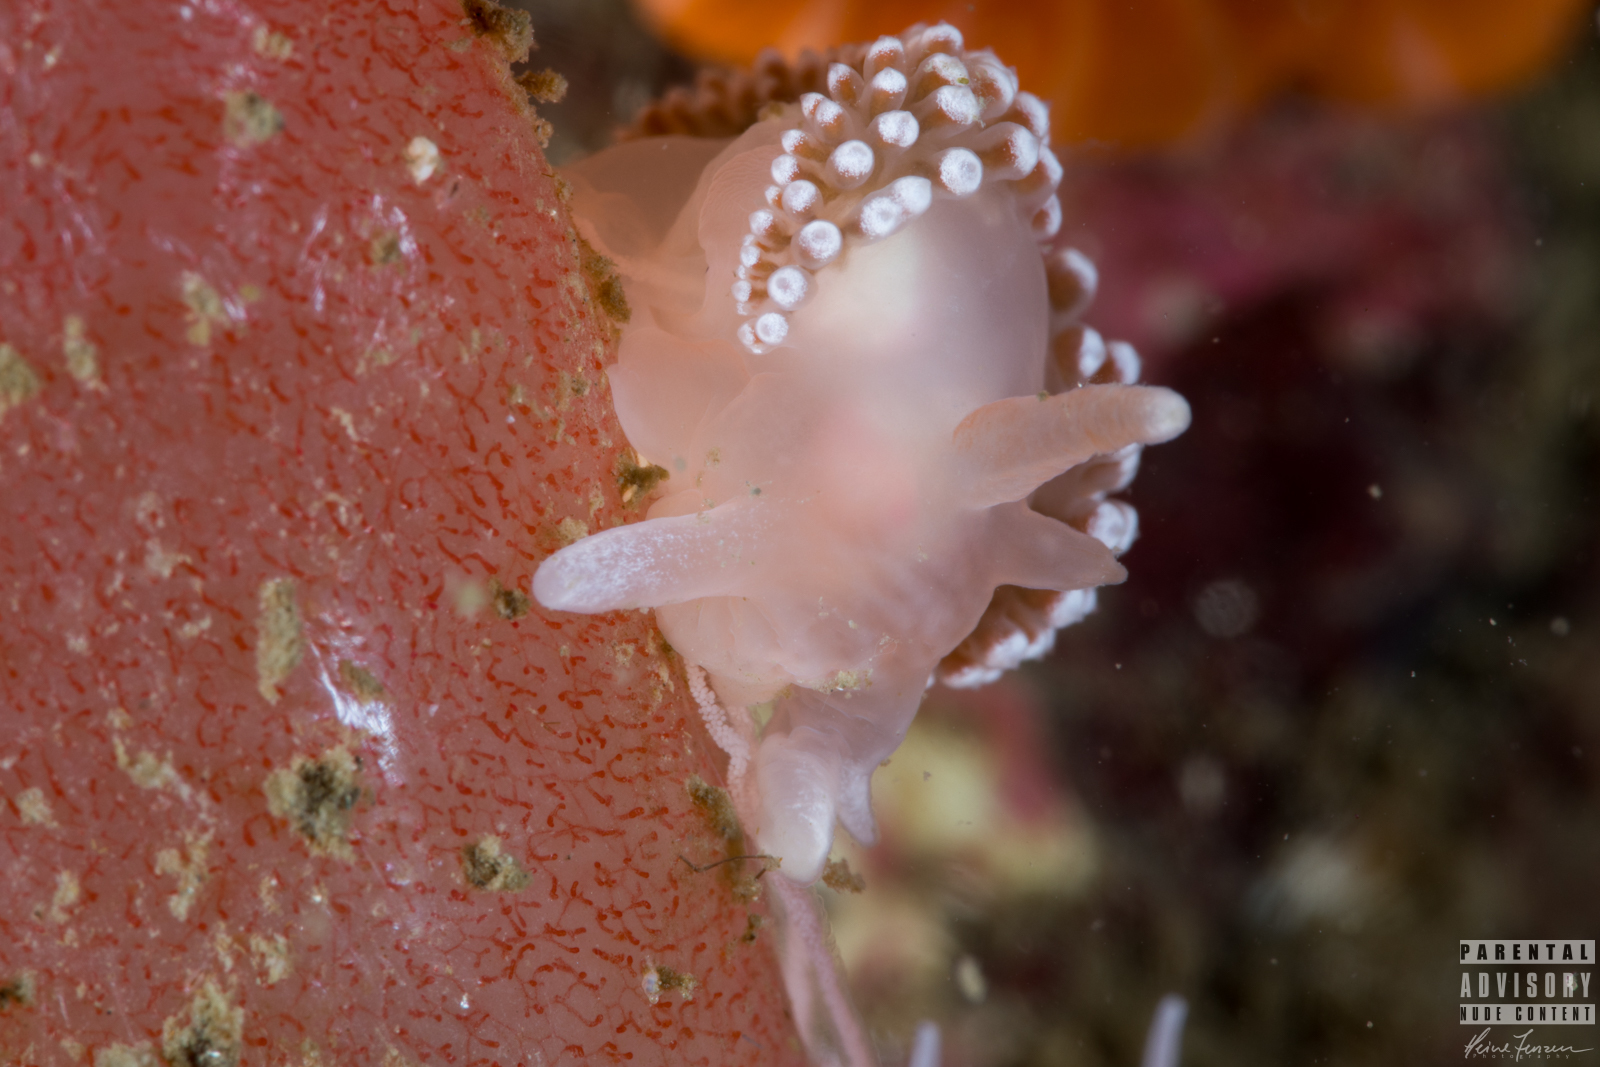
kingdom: Animalia
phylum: Mollusca
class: Gastropoda
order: Nudibranchia
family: Coryphellidae
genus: Coryphella
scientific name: Coryphella verrucosa
